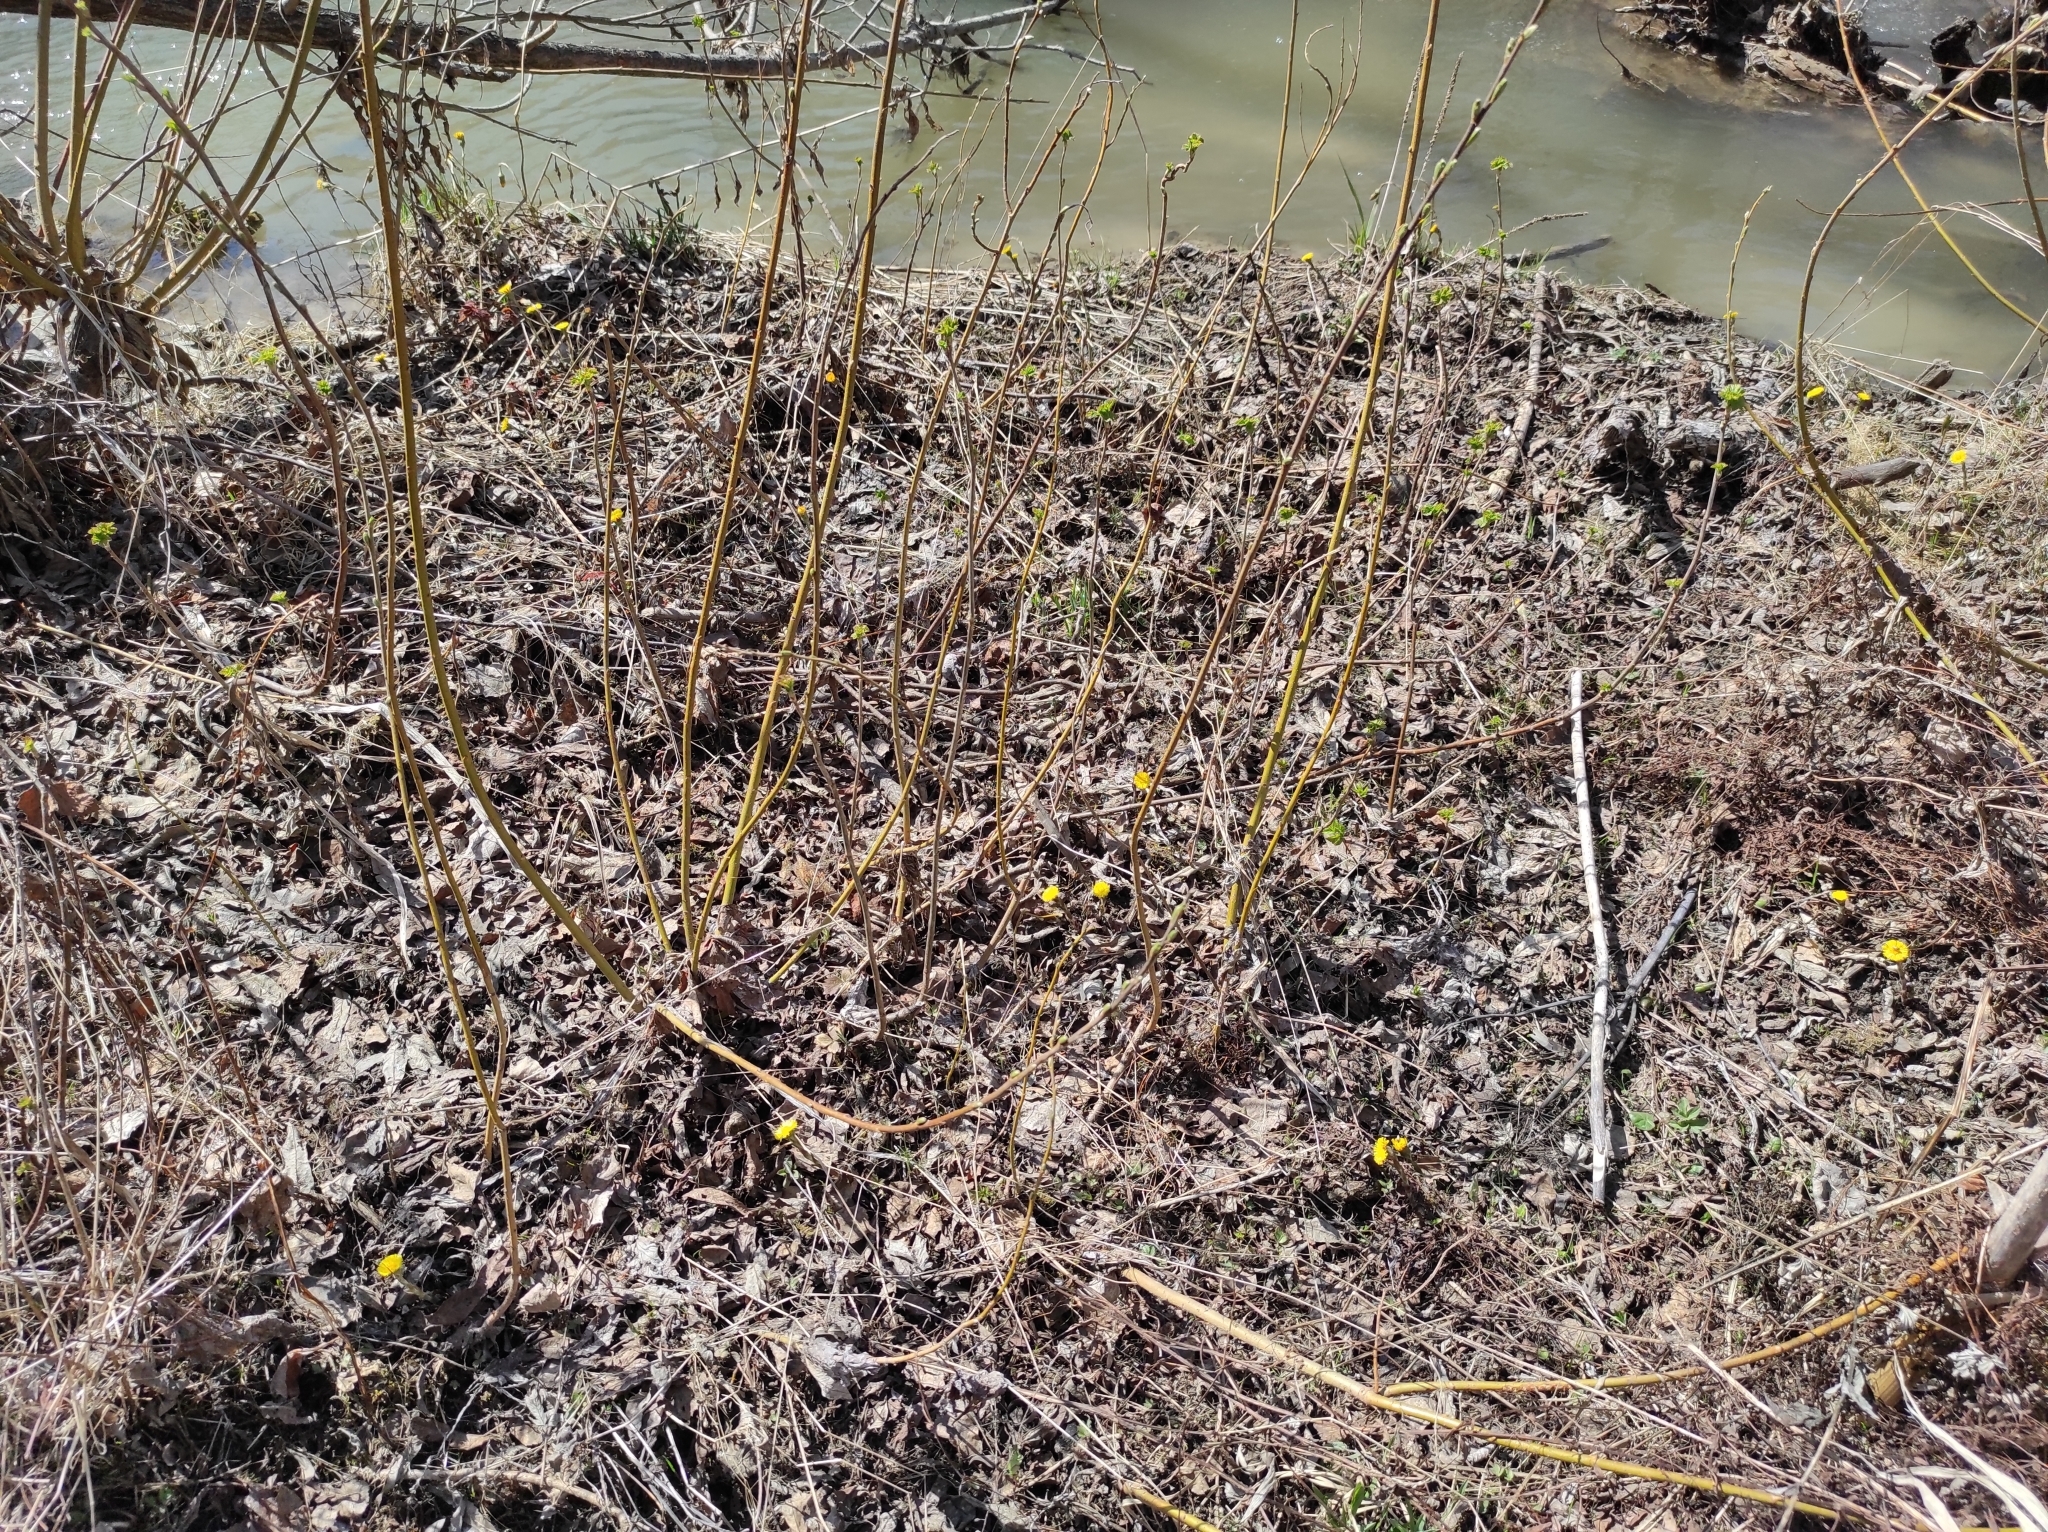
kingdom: Plantae
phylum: Tracheophyta
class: Magnoliopsida
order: Asterales
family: Asteraceae
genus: Tussilago
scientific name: Tussilago farfara
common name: Coltsfoot
